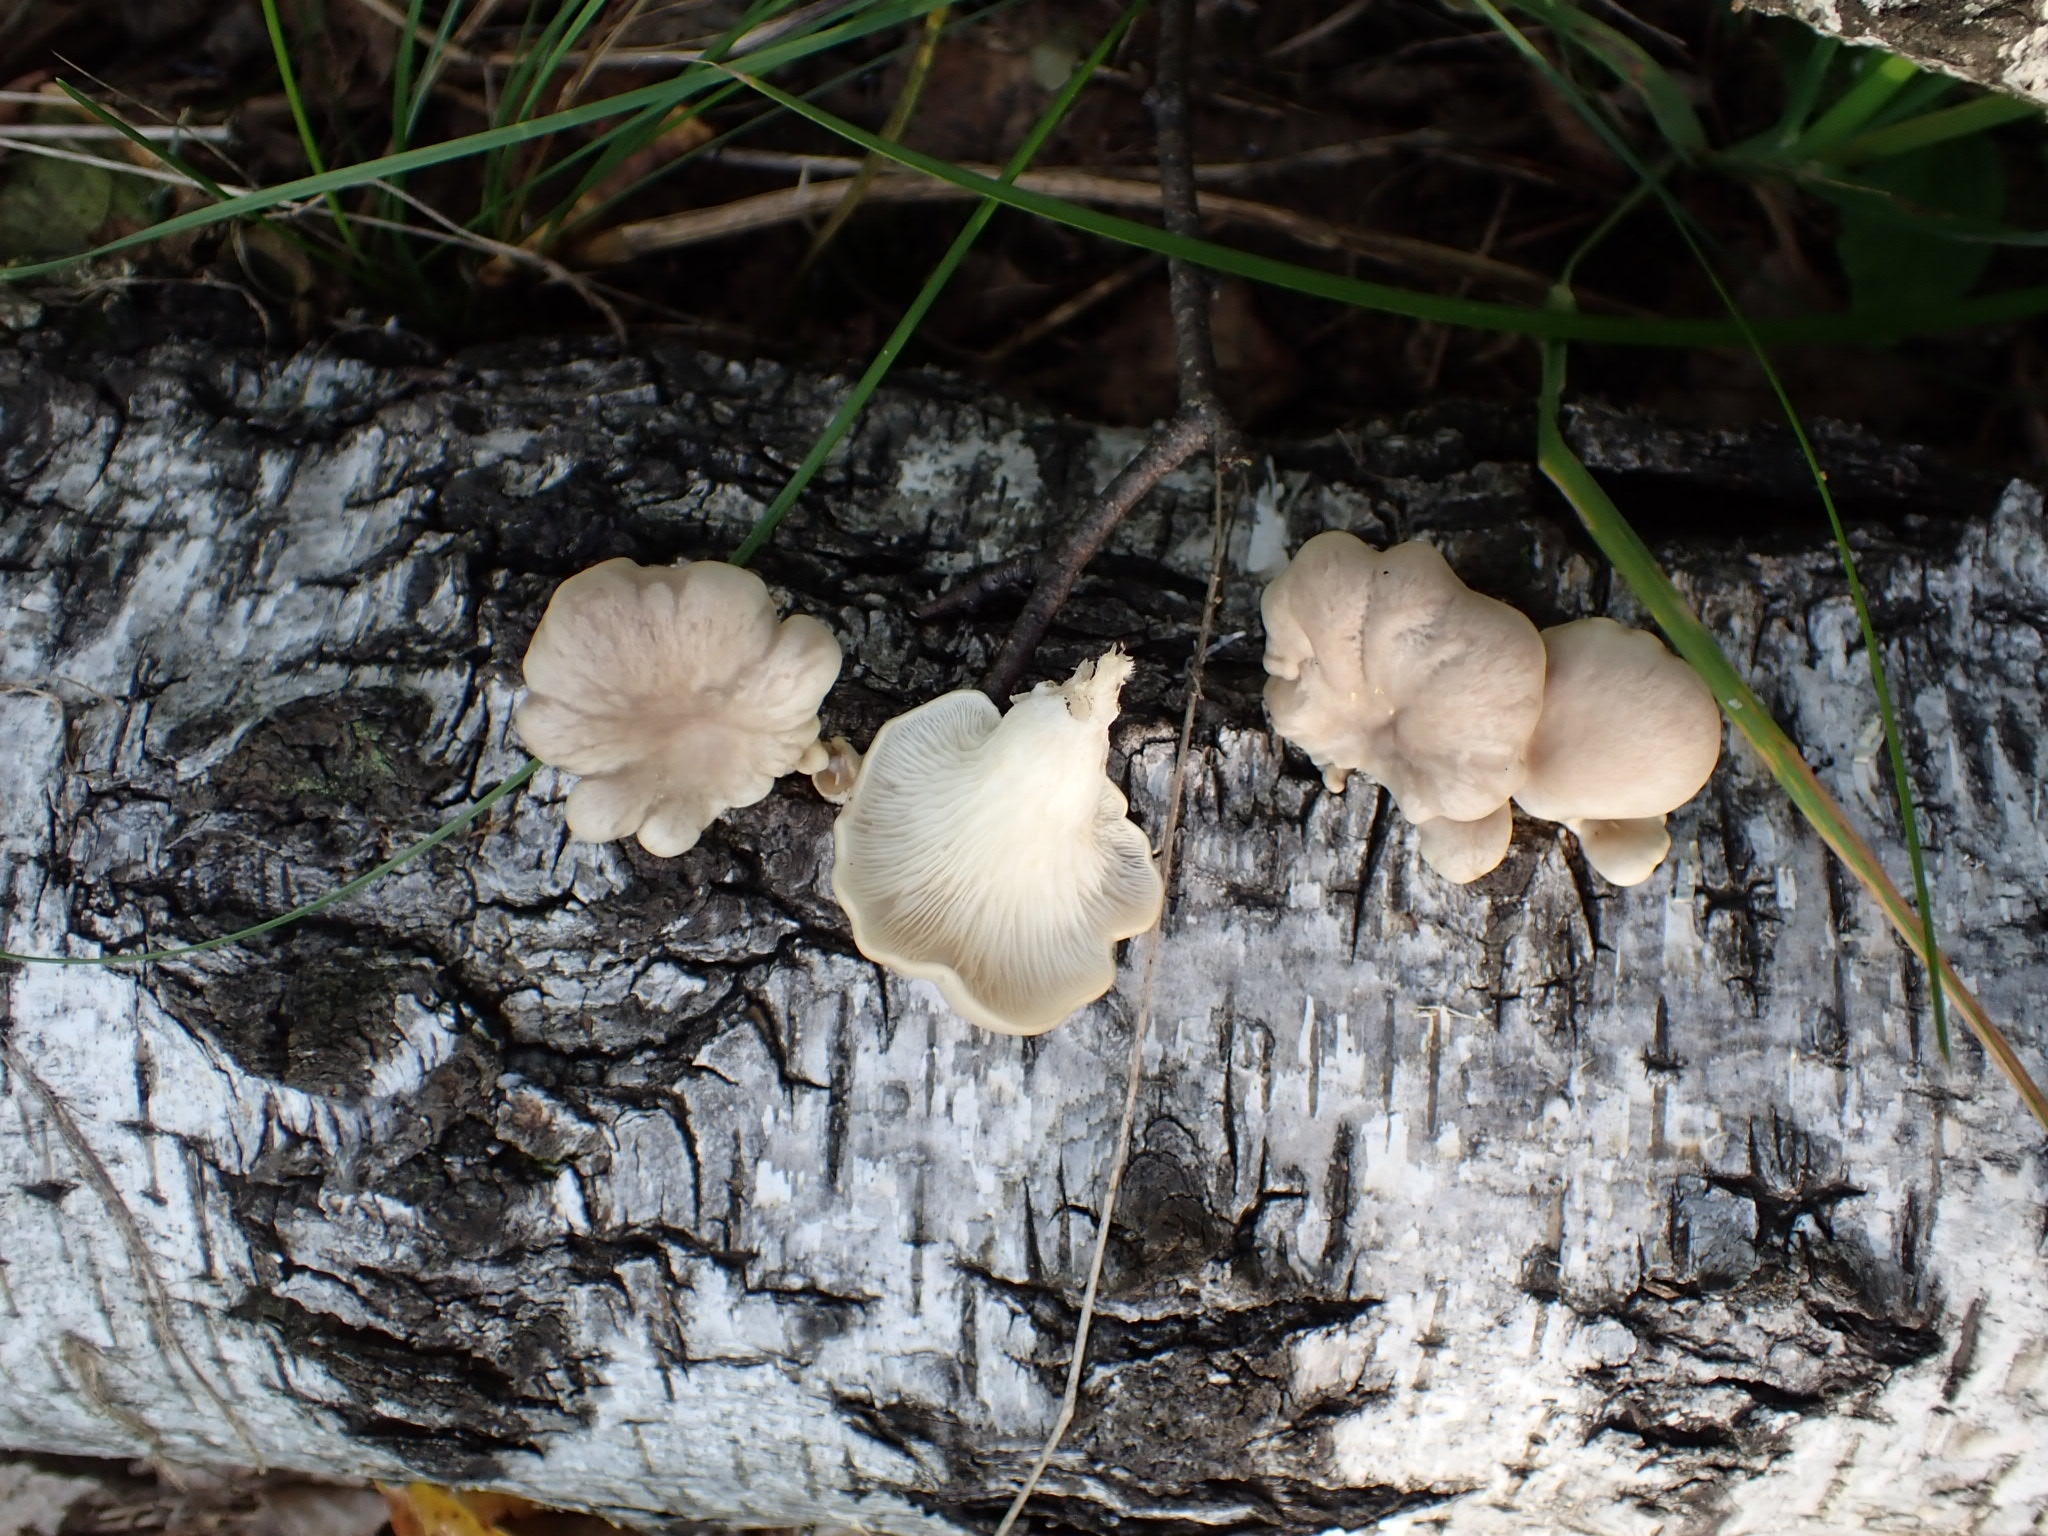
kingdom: Fungi
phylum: Basidiomycota
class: Agaricomycetes
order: Agaricales
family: Pleurotaceae
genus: Pleurotus
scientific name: Pleurotus pulmonarius
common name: Pale oyster
